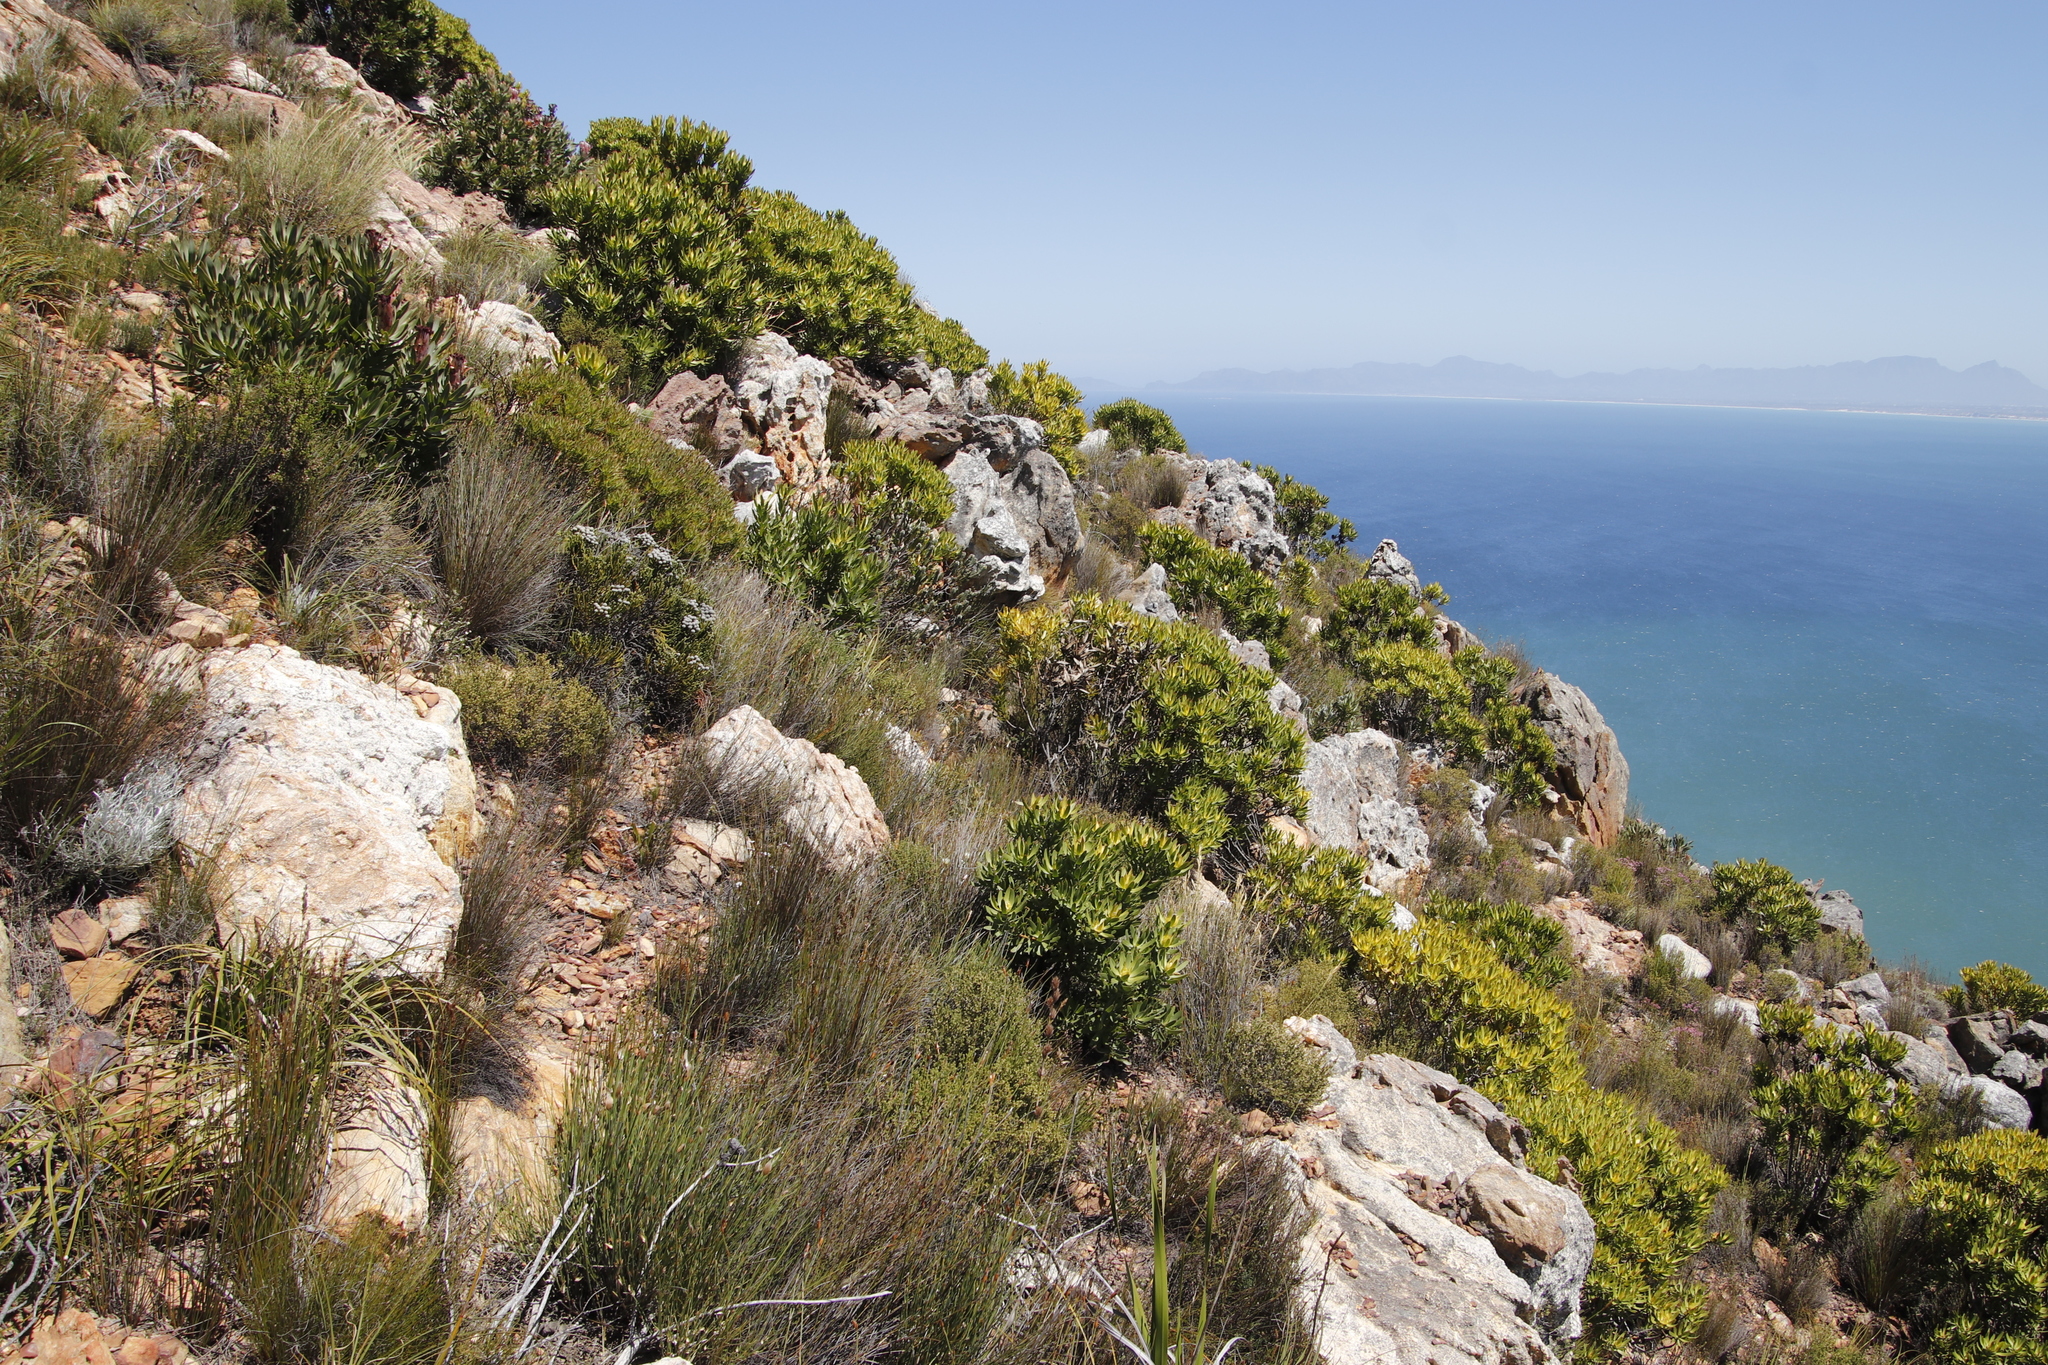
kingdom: Plantae
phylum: Tracheophyta
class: Magnoliopsida
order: Proteales
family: Proteaceae
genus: Leucadendron
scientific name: Leucadendron laureolum
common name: Golden sunshinebush
